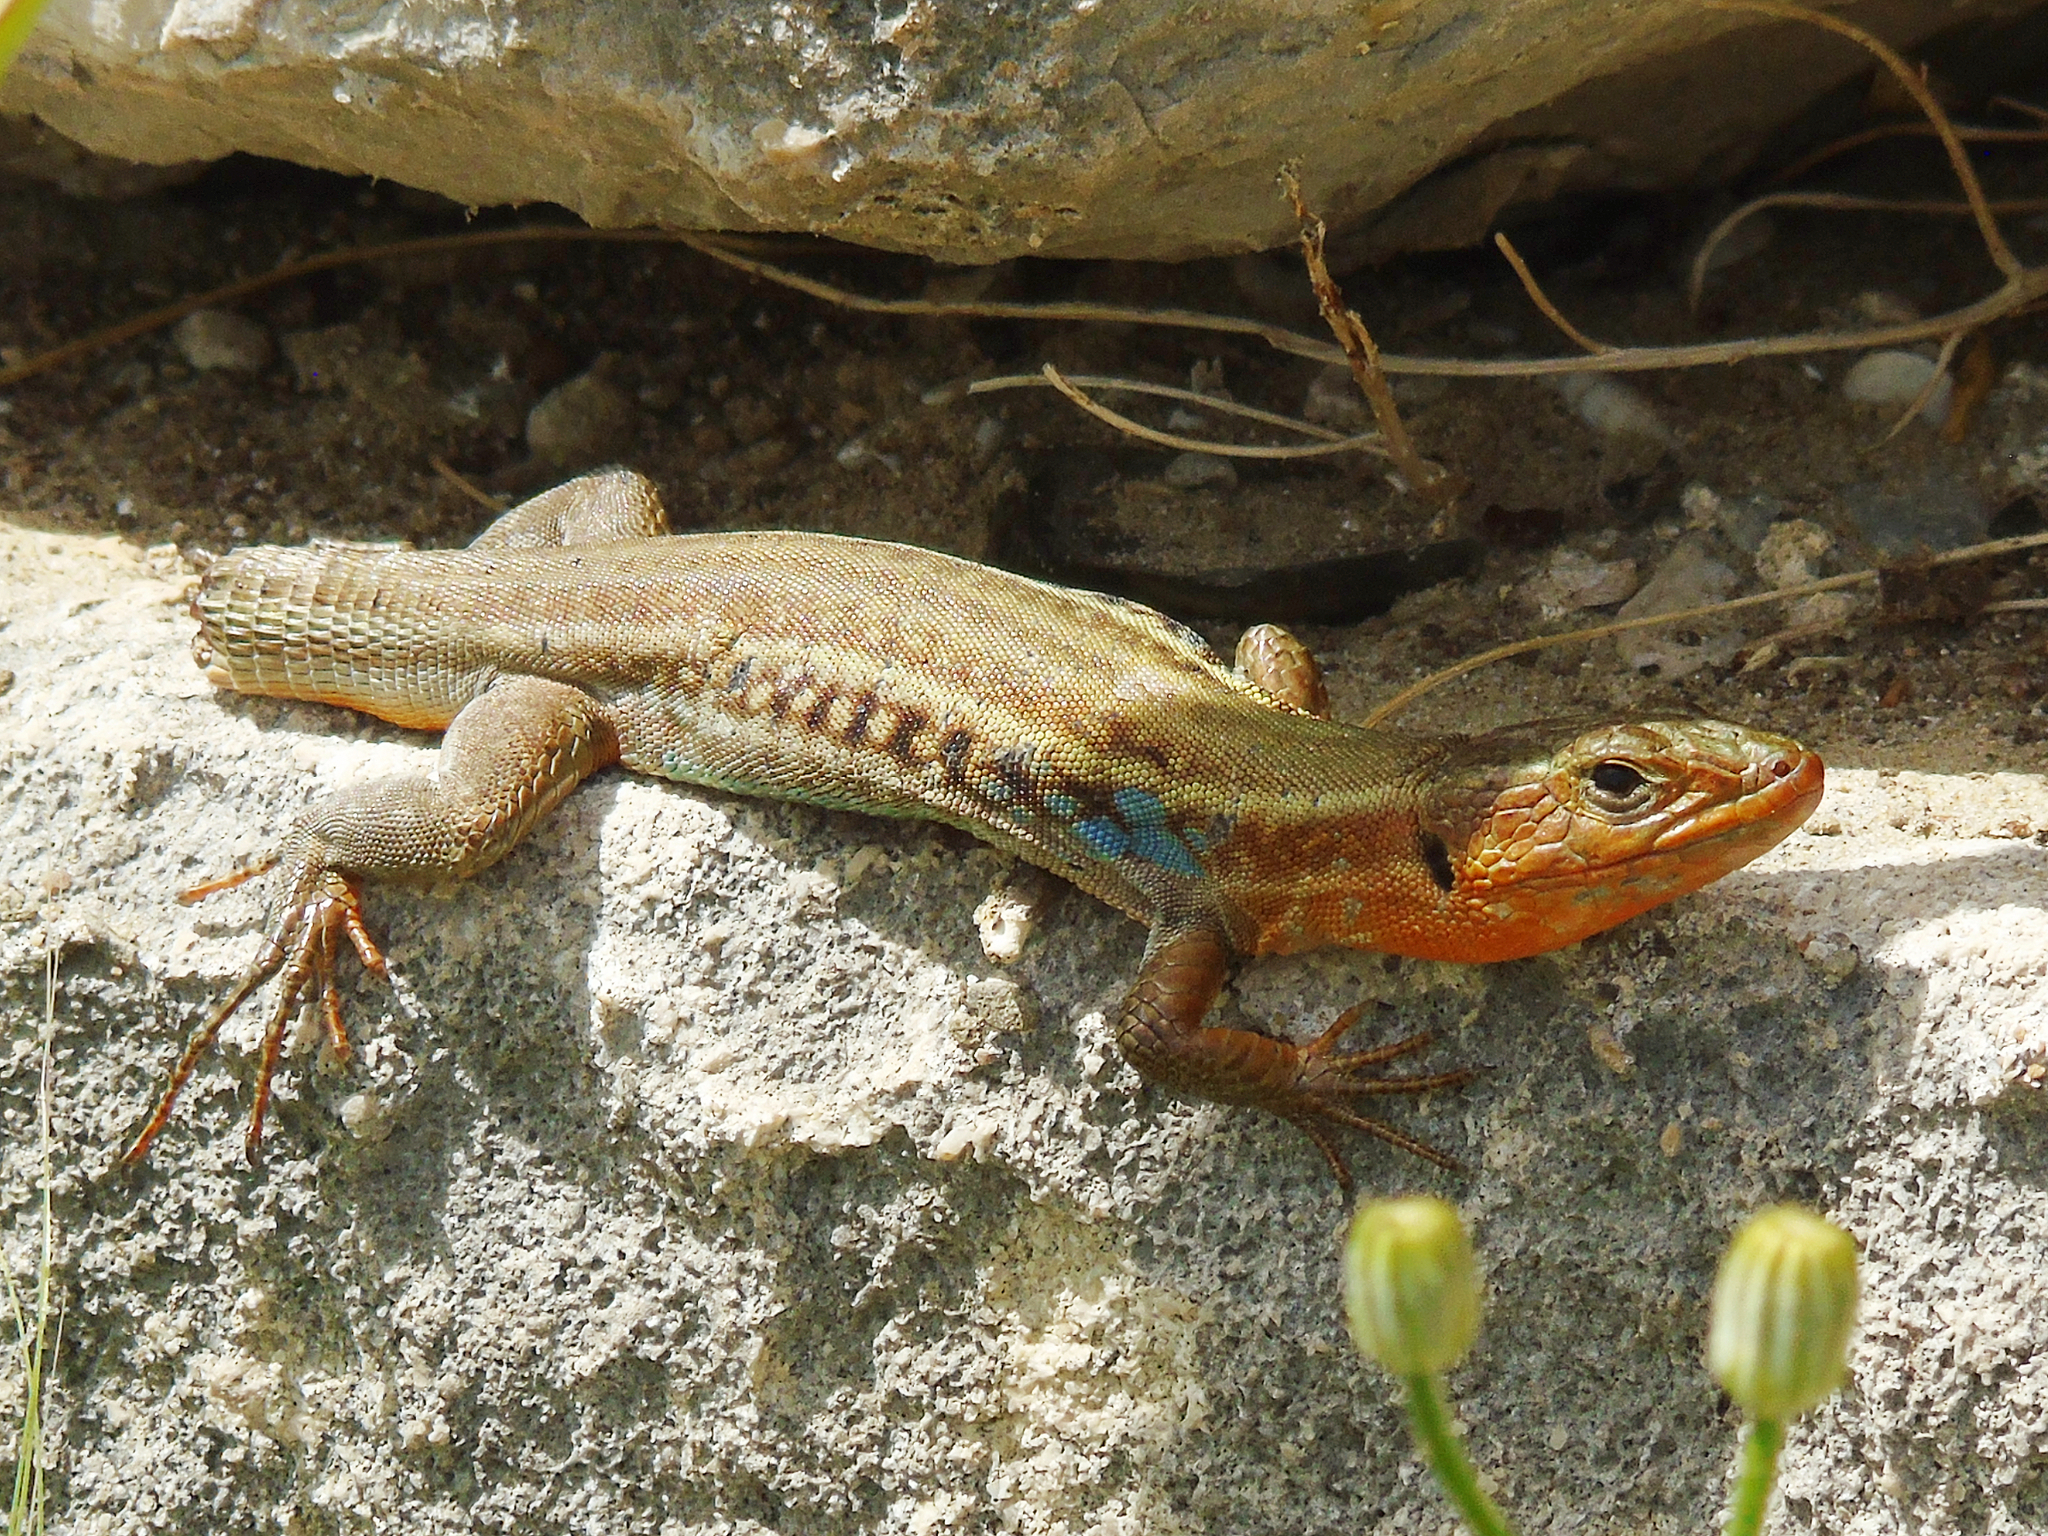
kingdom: Animalia
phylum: Chordata
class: Squamata
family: Lacertidae
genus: Podarcis
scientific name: Podarcis peloponnesiacus
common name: Peloponnese wall lizard
